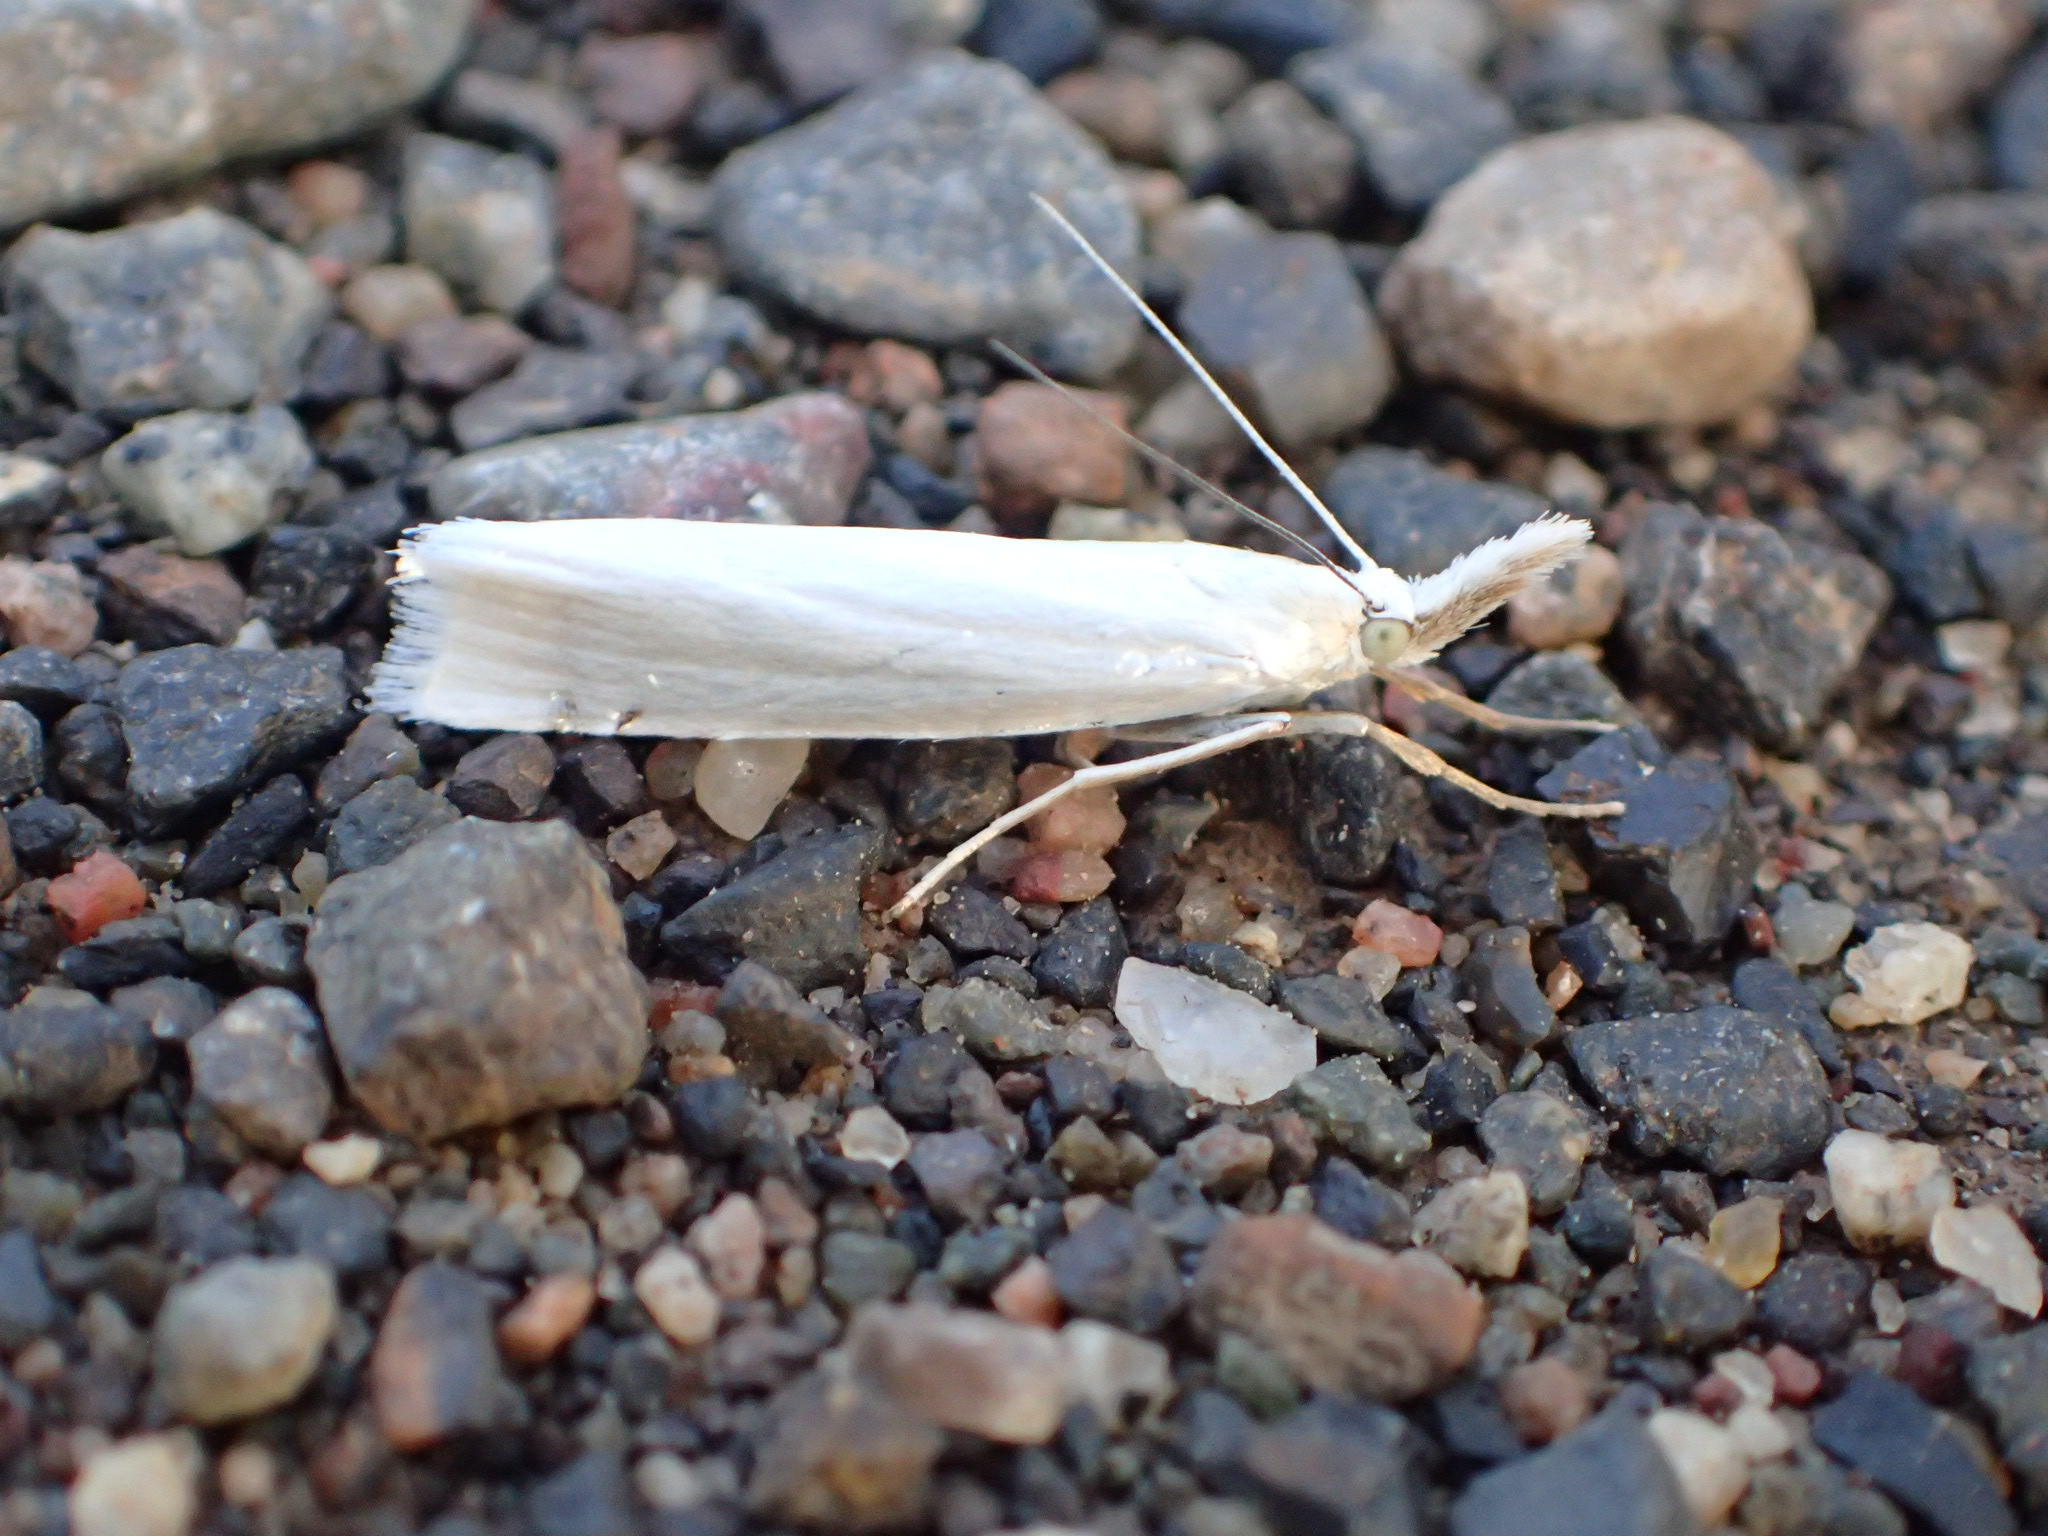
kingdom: Animalia
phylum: Arthropoda
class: Insecta
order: Lepidoptera
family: Crambidae
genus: Crambus
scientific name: Crambus perlellus
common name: Yellow satin veneer
